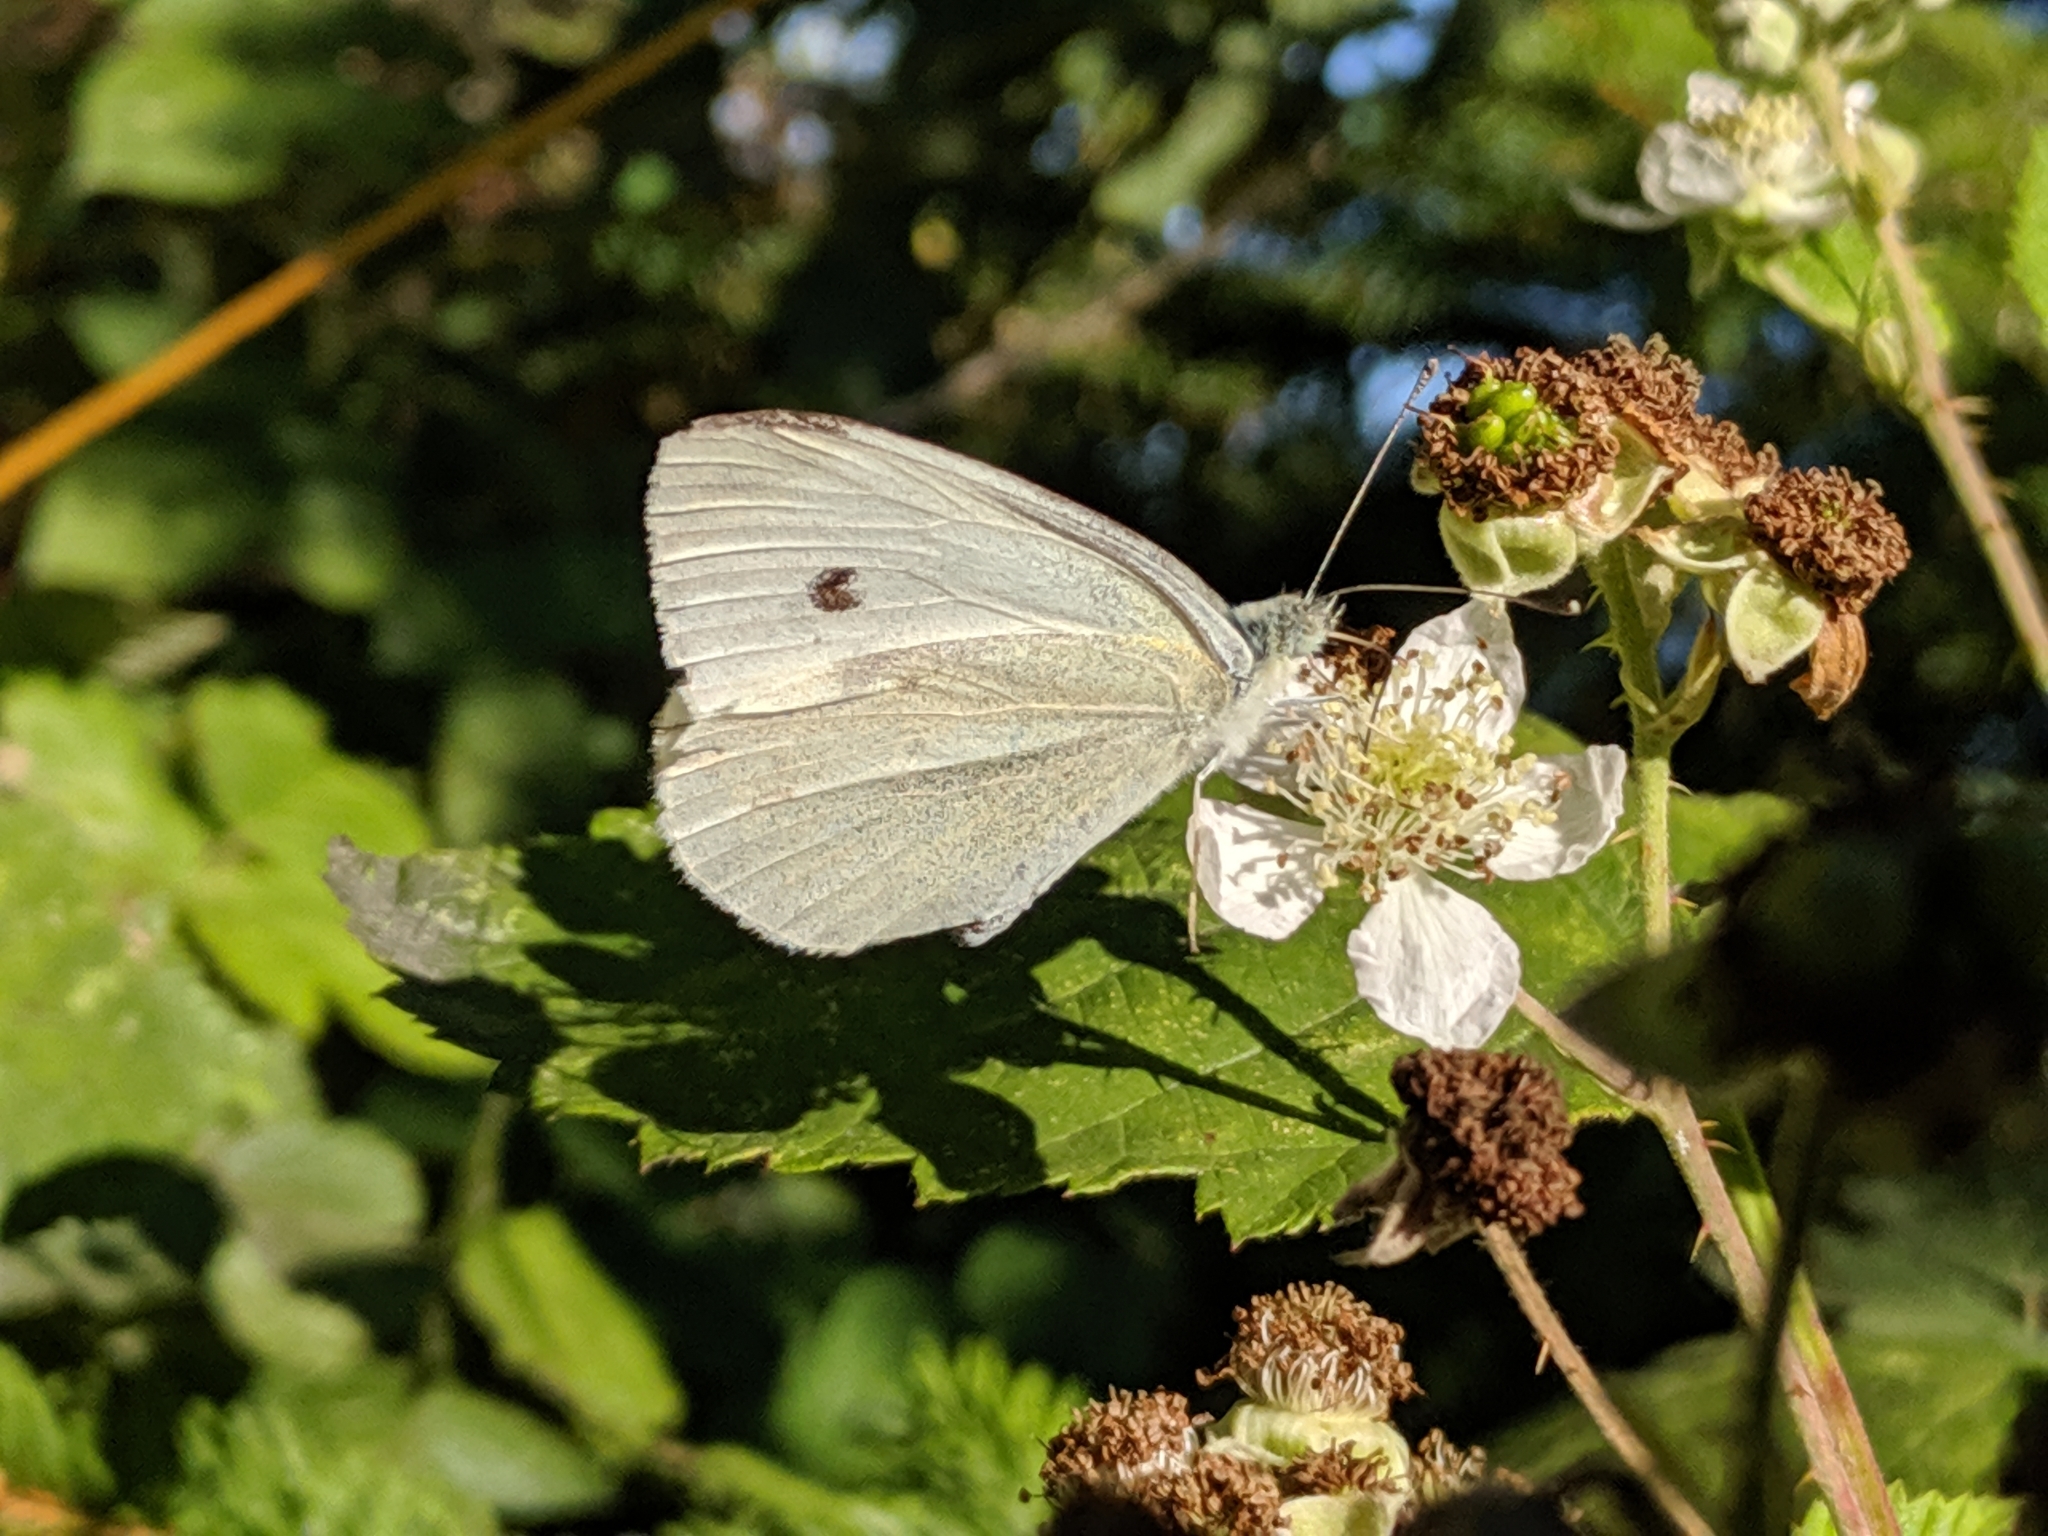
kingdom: Animalia
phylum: Arthropoda
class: Insecta
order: Lepidoptera
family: Pieridae
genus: Pieris
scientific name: Pieris rapae
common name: Small white
